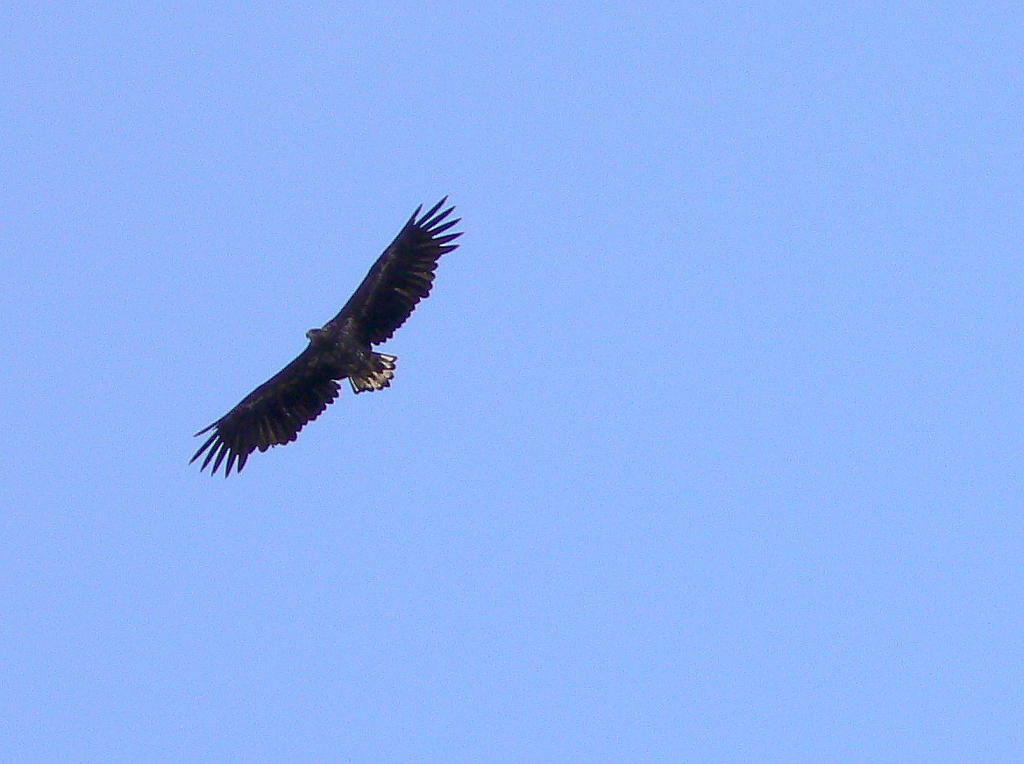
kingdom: Animalia
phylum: Chordata
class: Aves
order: Accipitriformes
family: Accipitridae
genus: Haliaeetus
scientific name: Haliaeetus albicilla
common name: White-tailed eagle
